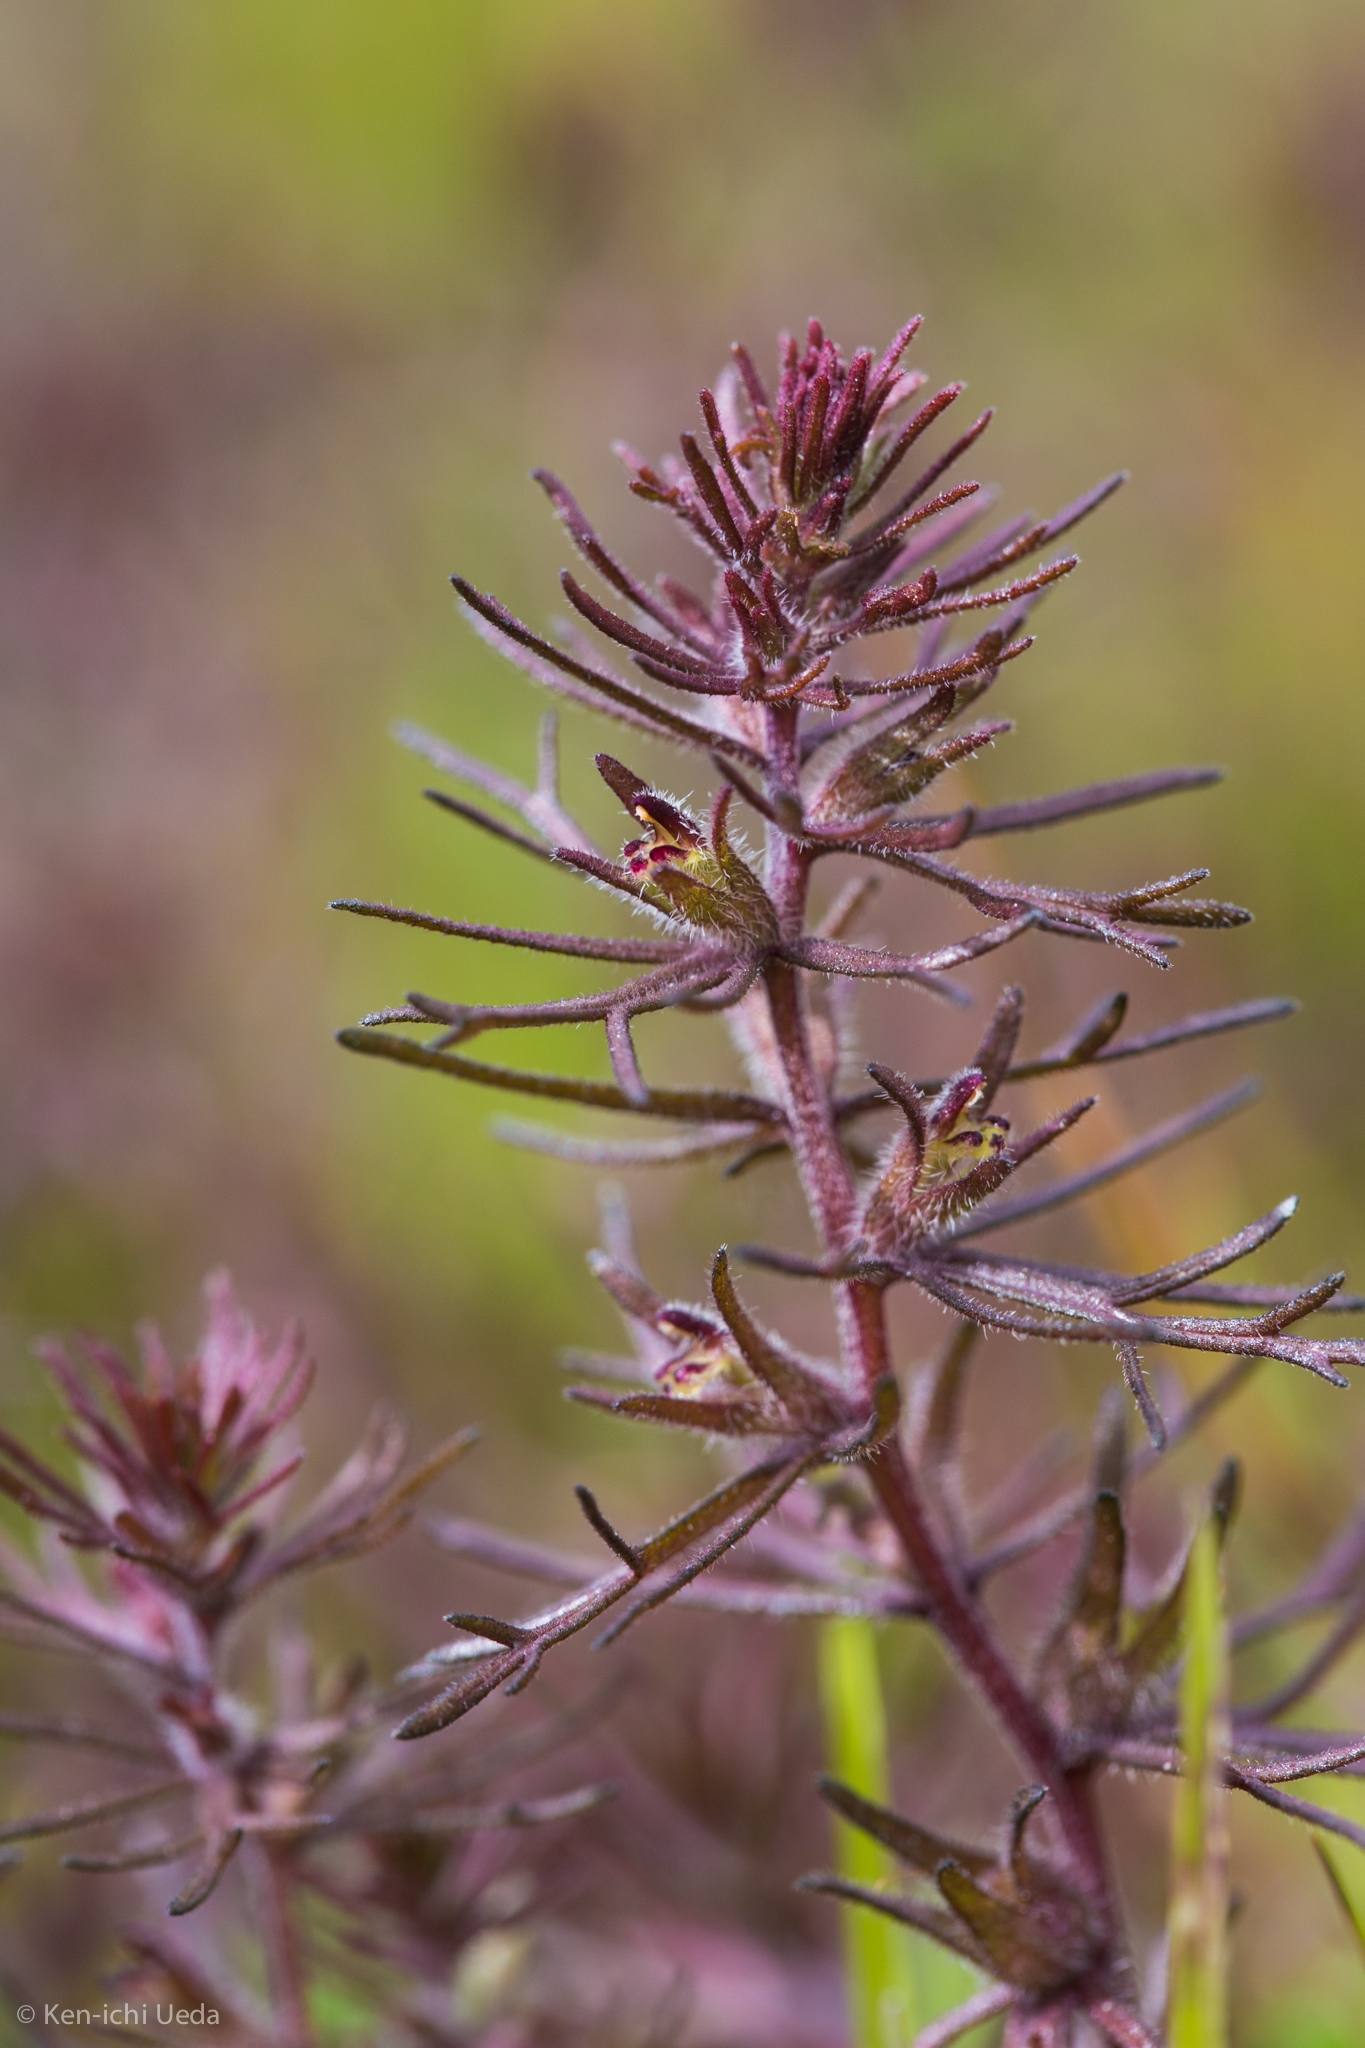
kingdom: Plantae
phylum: Tracheophyta
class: Magnoliopsida
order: Lamiales
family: Orobanchaceae
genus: Triphysaria
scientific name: Triphysaria pusilla
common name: Dwarf false owl-clover
